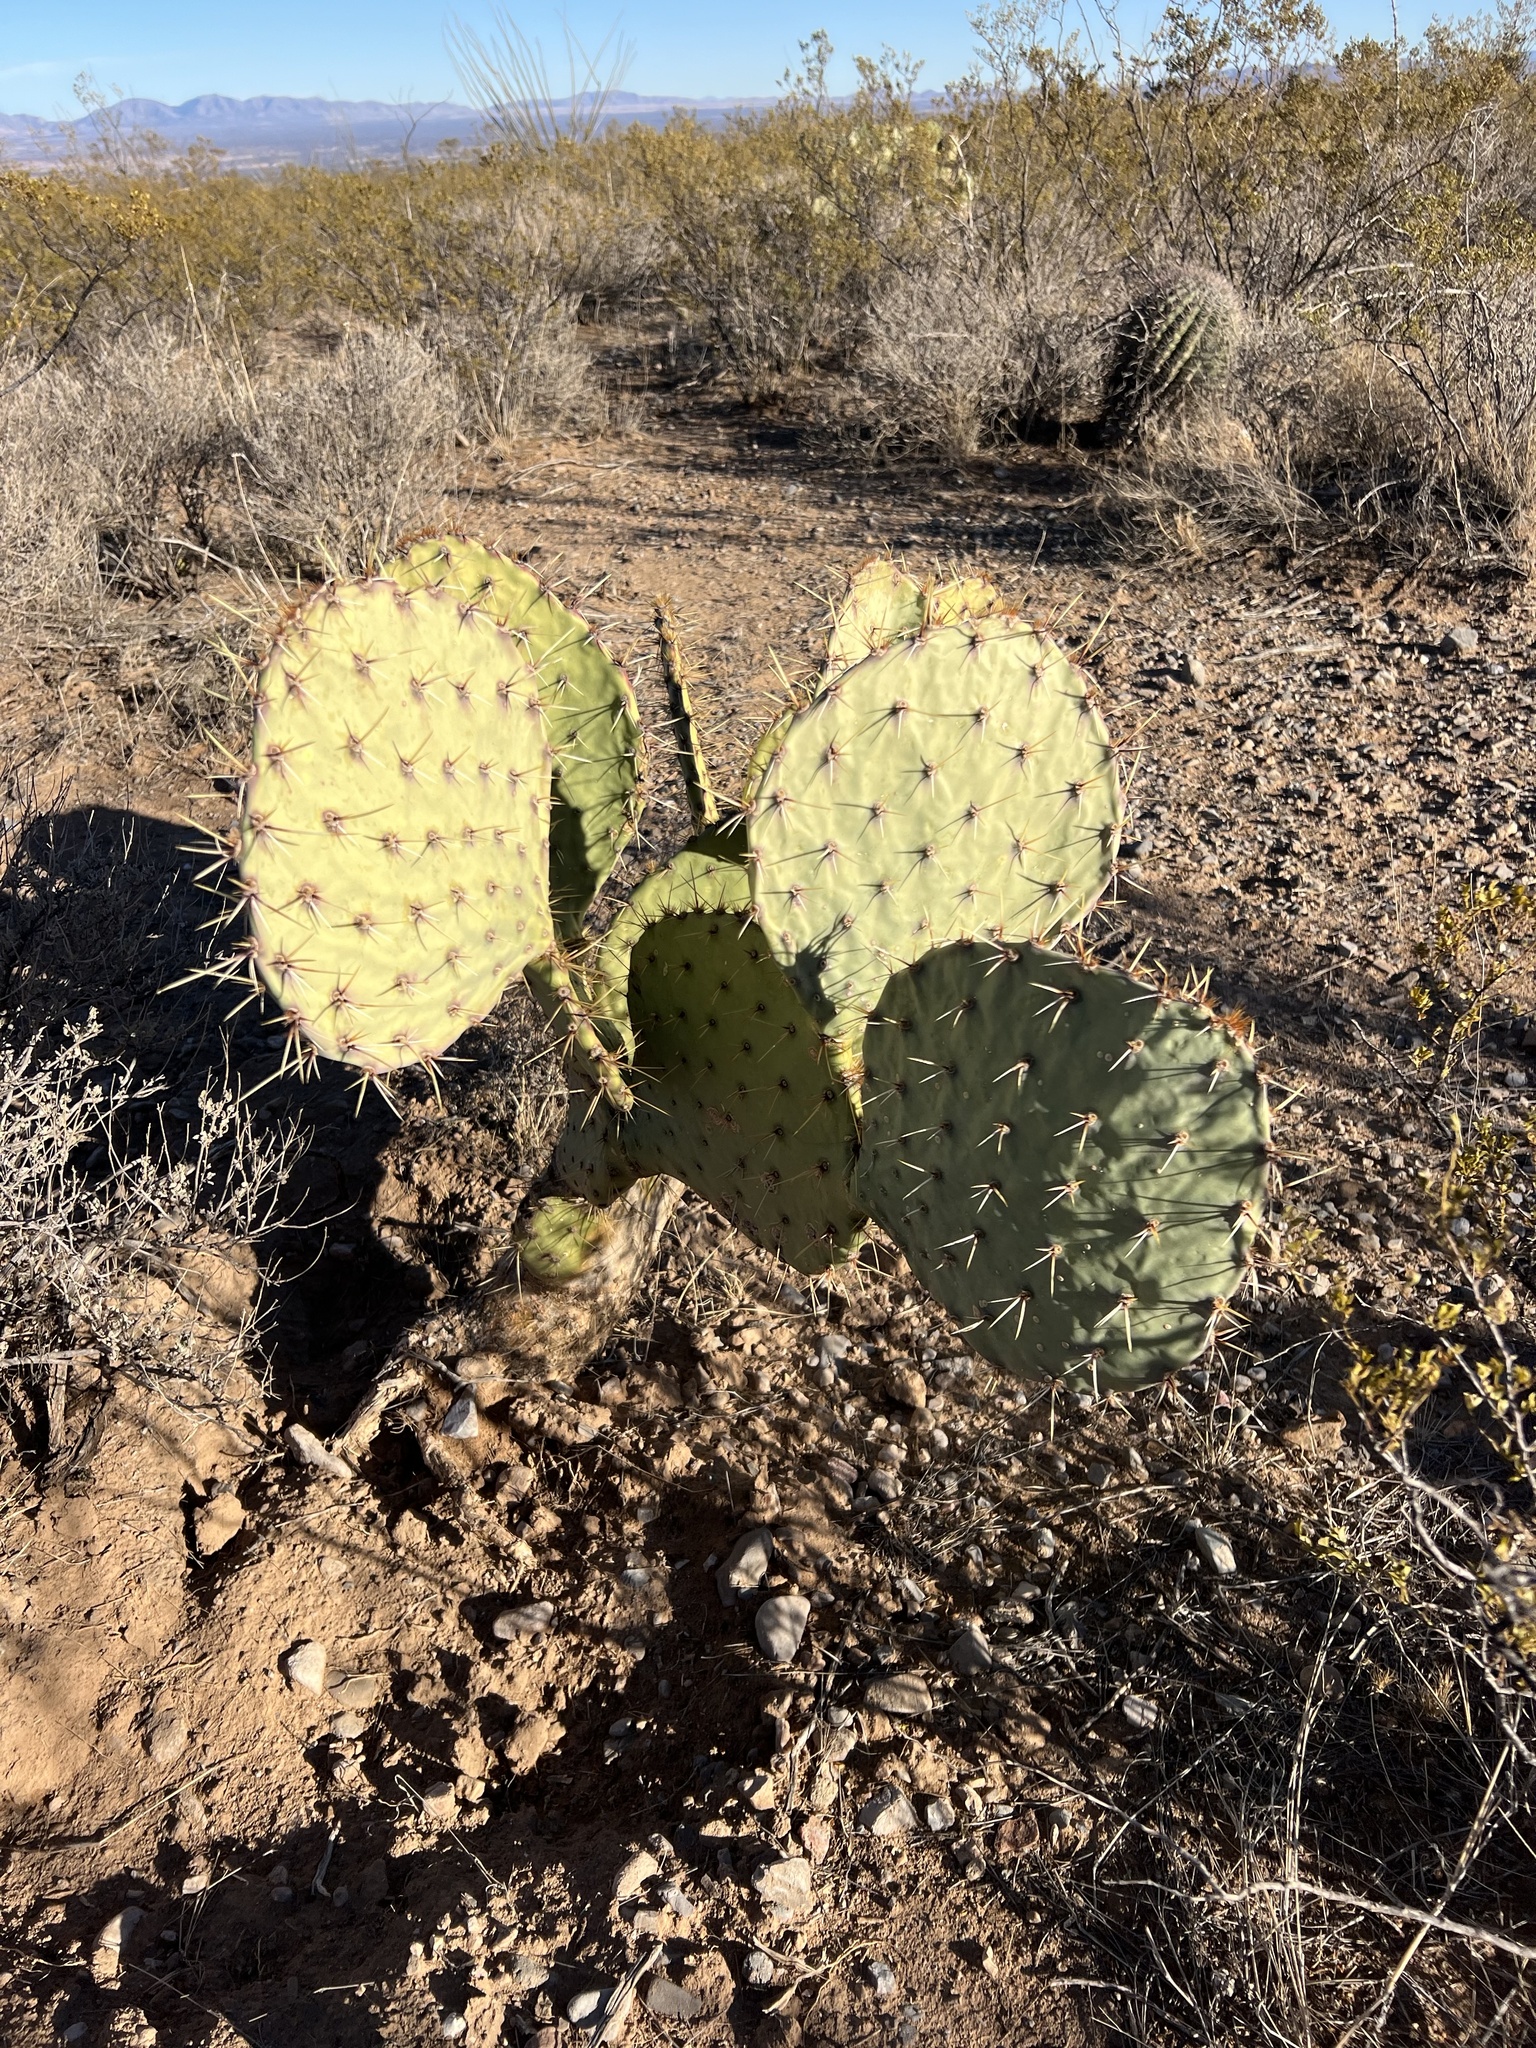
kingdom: Plantae
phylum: Tracheophyta
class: Magnoliopsida
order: Caryophyllales
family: Cactaceae
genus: Opuntia
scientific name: Opuntia engelmannii
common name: Cactus-apple
